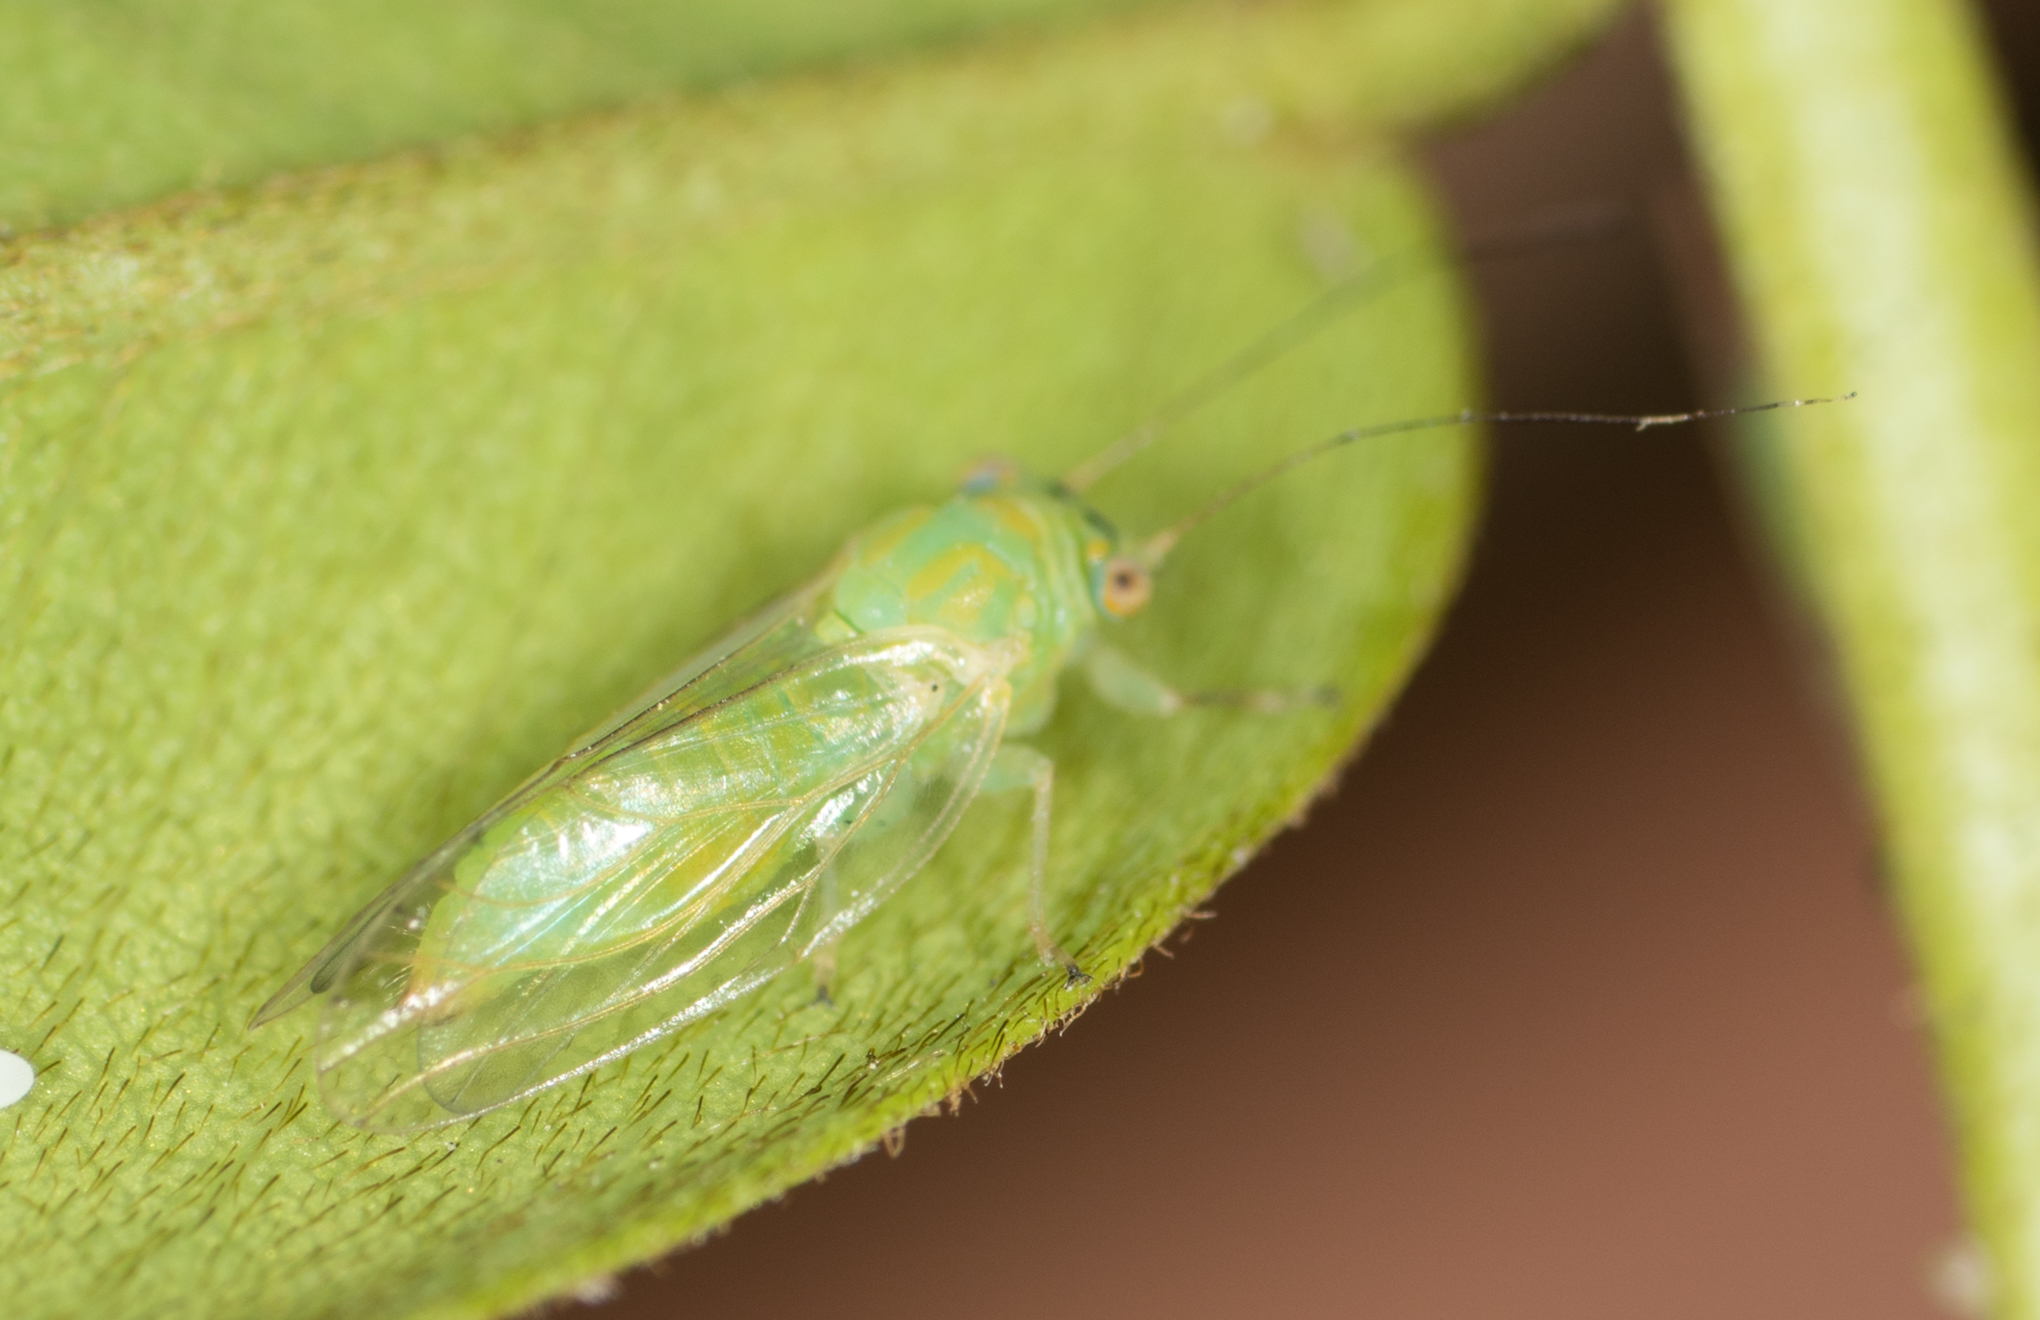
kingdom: Animalia
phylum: Arthropoda
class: Insecta
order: Hemiptera
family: Psyllidae
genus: Platycorypha
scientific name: Platycorypha nigrivirga
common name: Tipu psyllid
